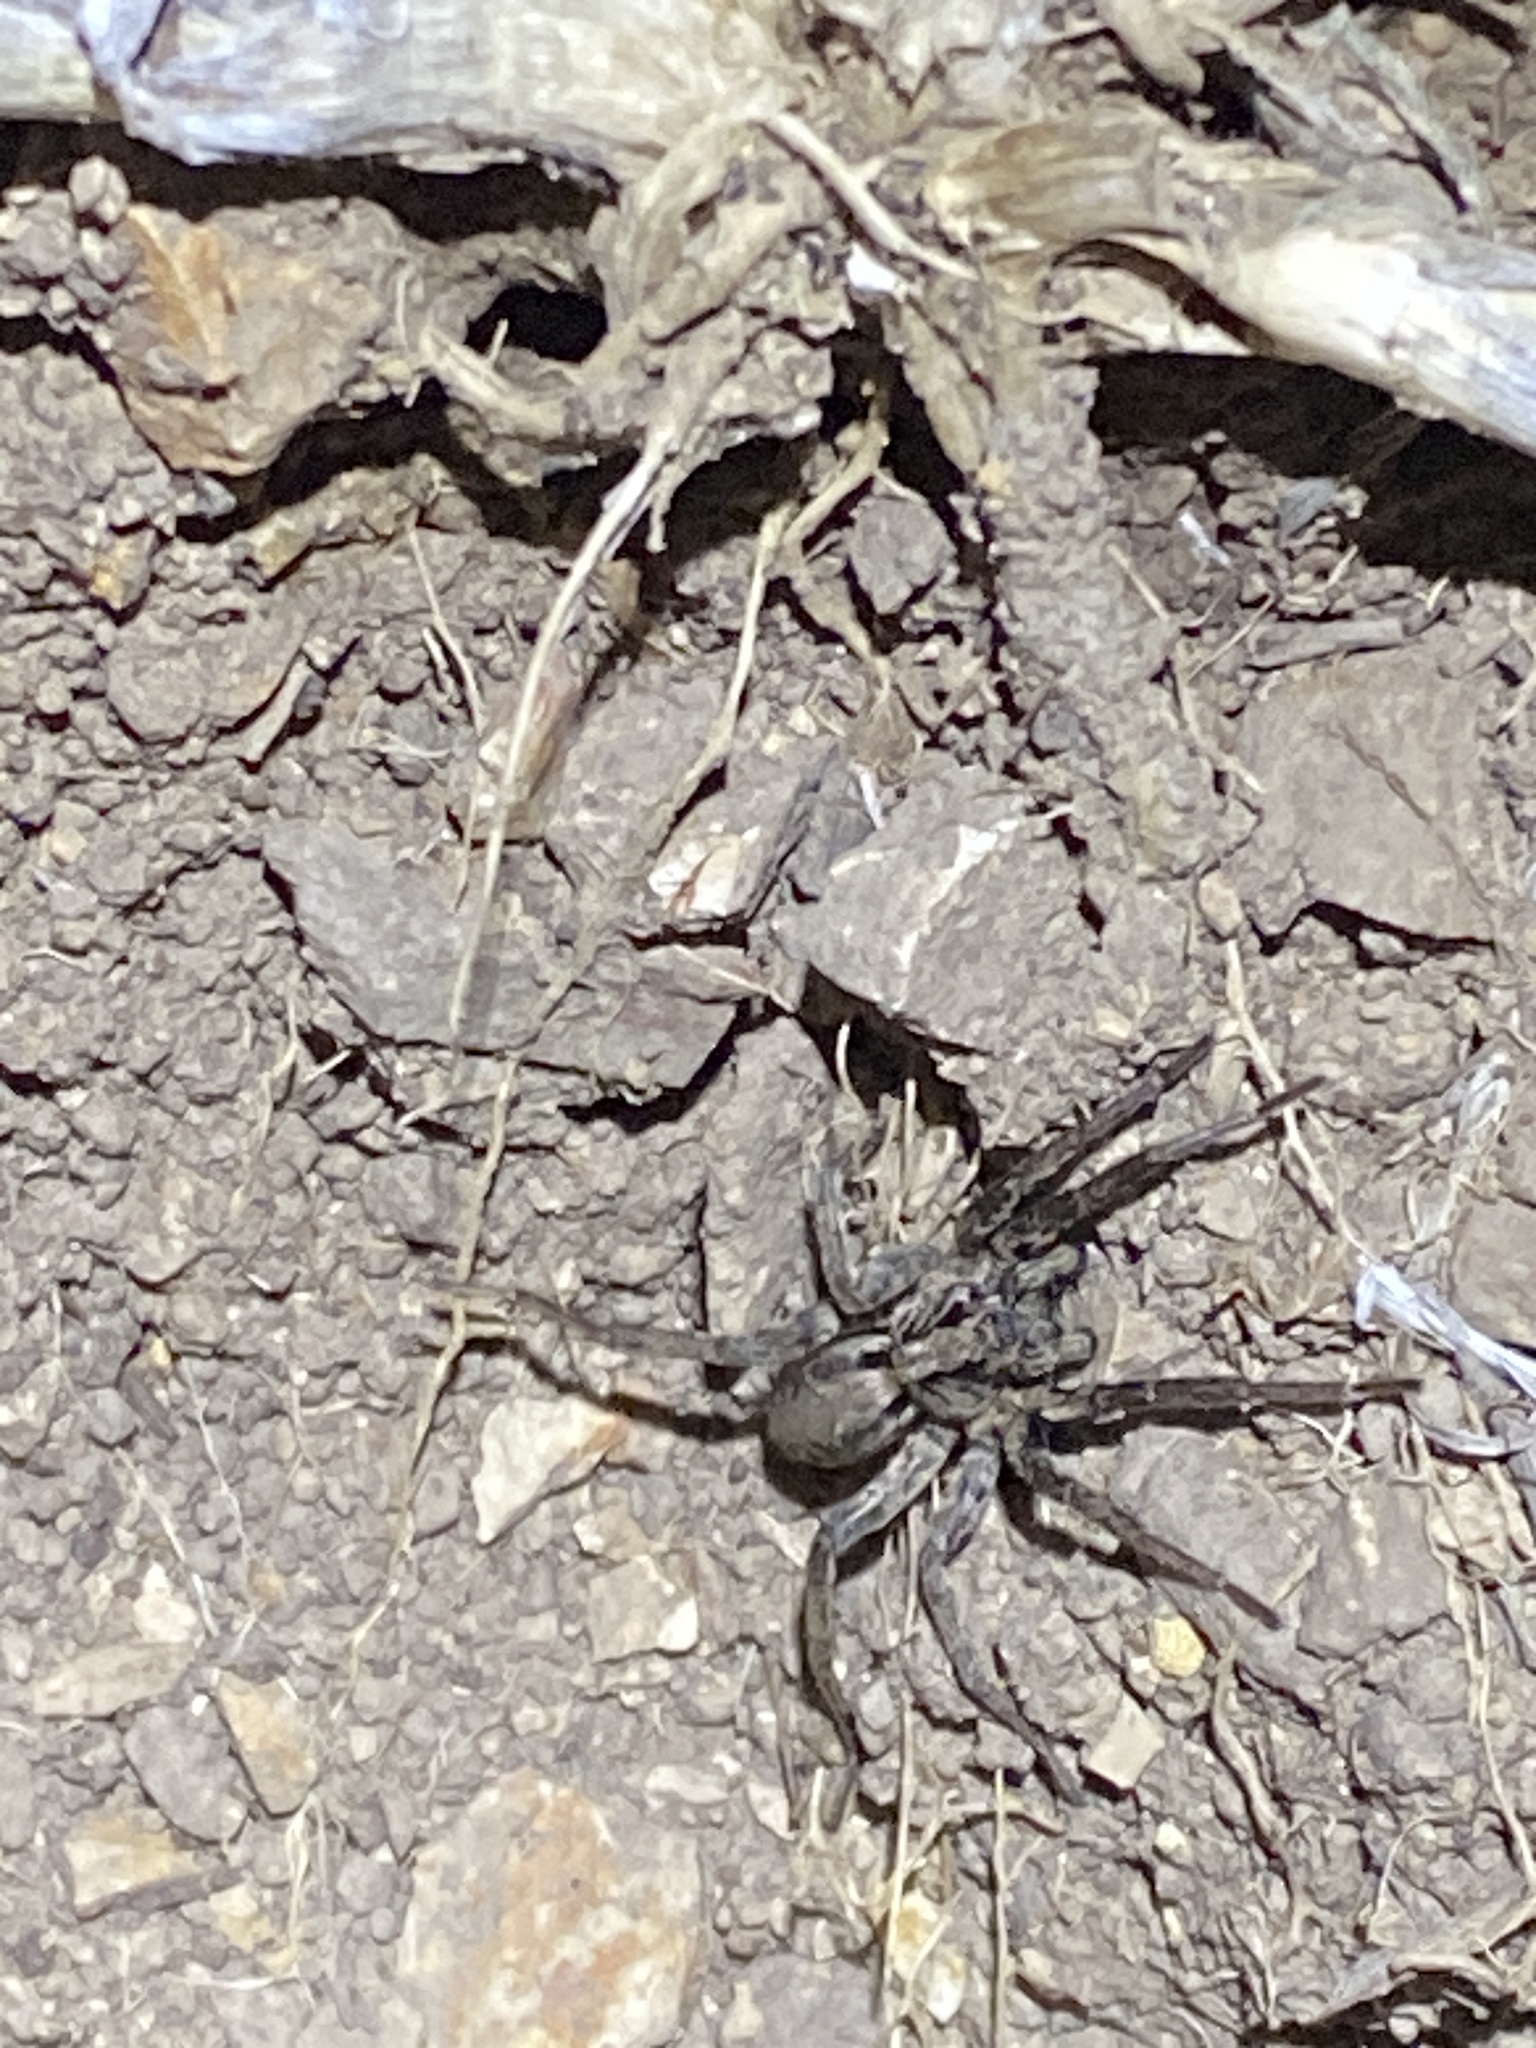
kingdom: Animalia
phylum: Arthropoda
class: Arachnida
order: Araneae
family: Lycosidae
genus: Alopecosa
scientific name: Alopecosa kochi
